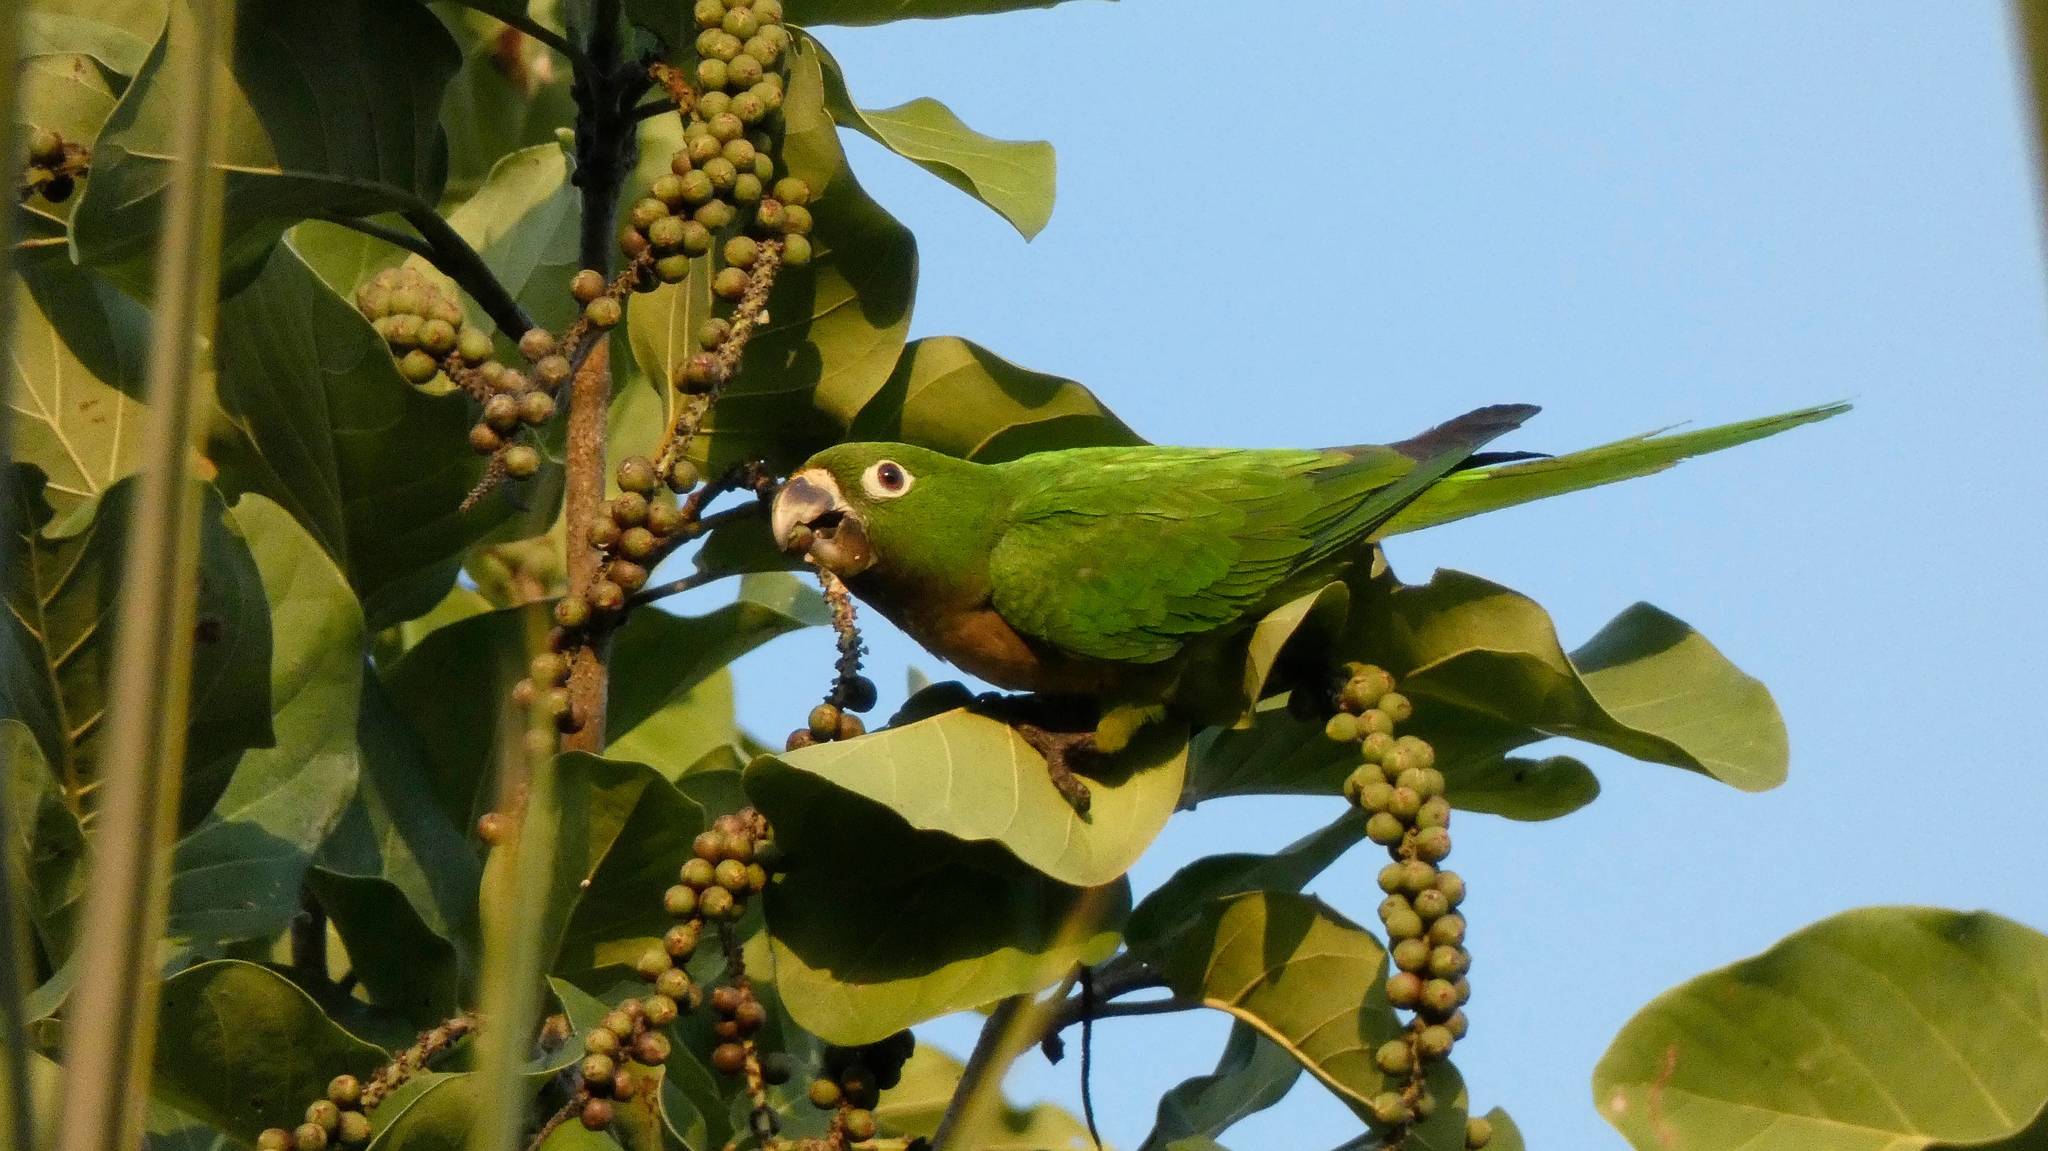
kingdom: Animalia
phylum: Chordata
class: Aves
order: Psittaciformes
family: Psittacidae
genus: Aratinga
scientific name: Aratinga nana
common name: Olive-throated parakeet
